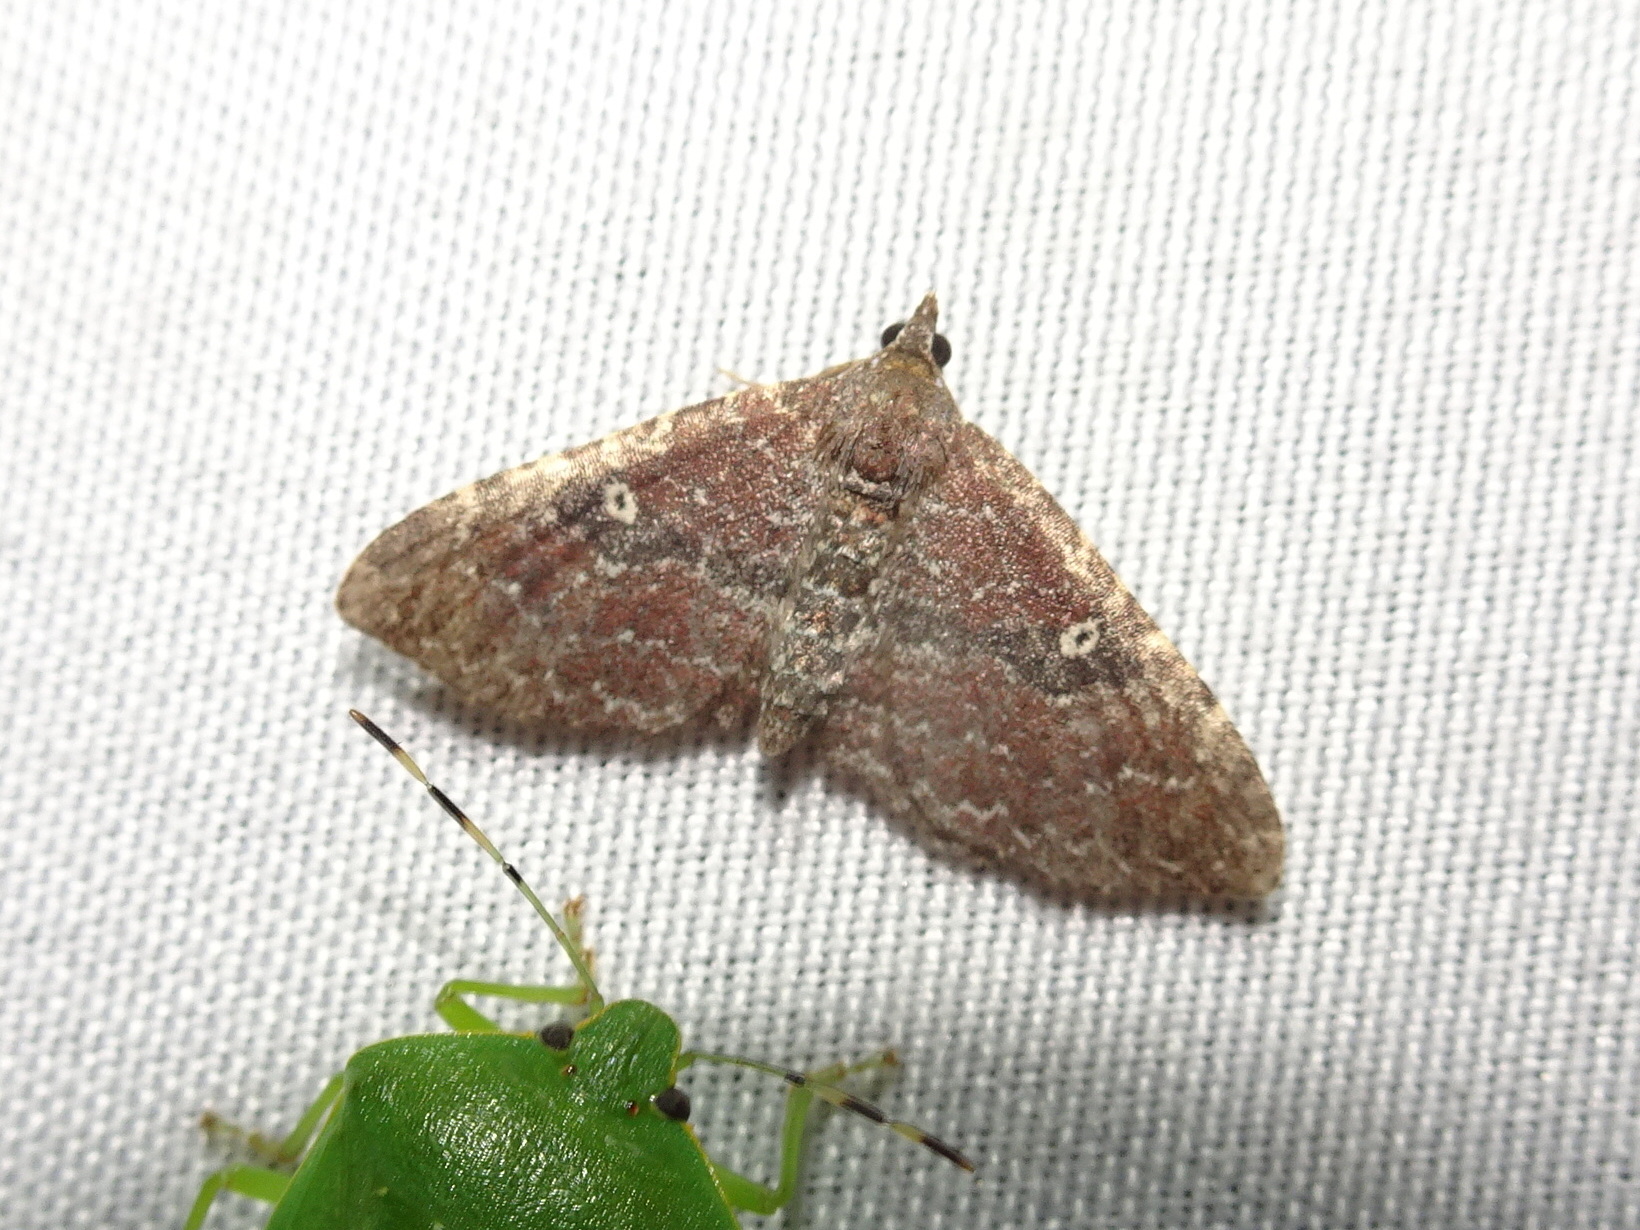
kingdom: Animalia
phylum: Arthropoda
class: Insecta
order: Lepidoptera
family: Geometridae
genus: Orthonama
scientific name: Orthonama obstipata
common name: The gem
